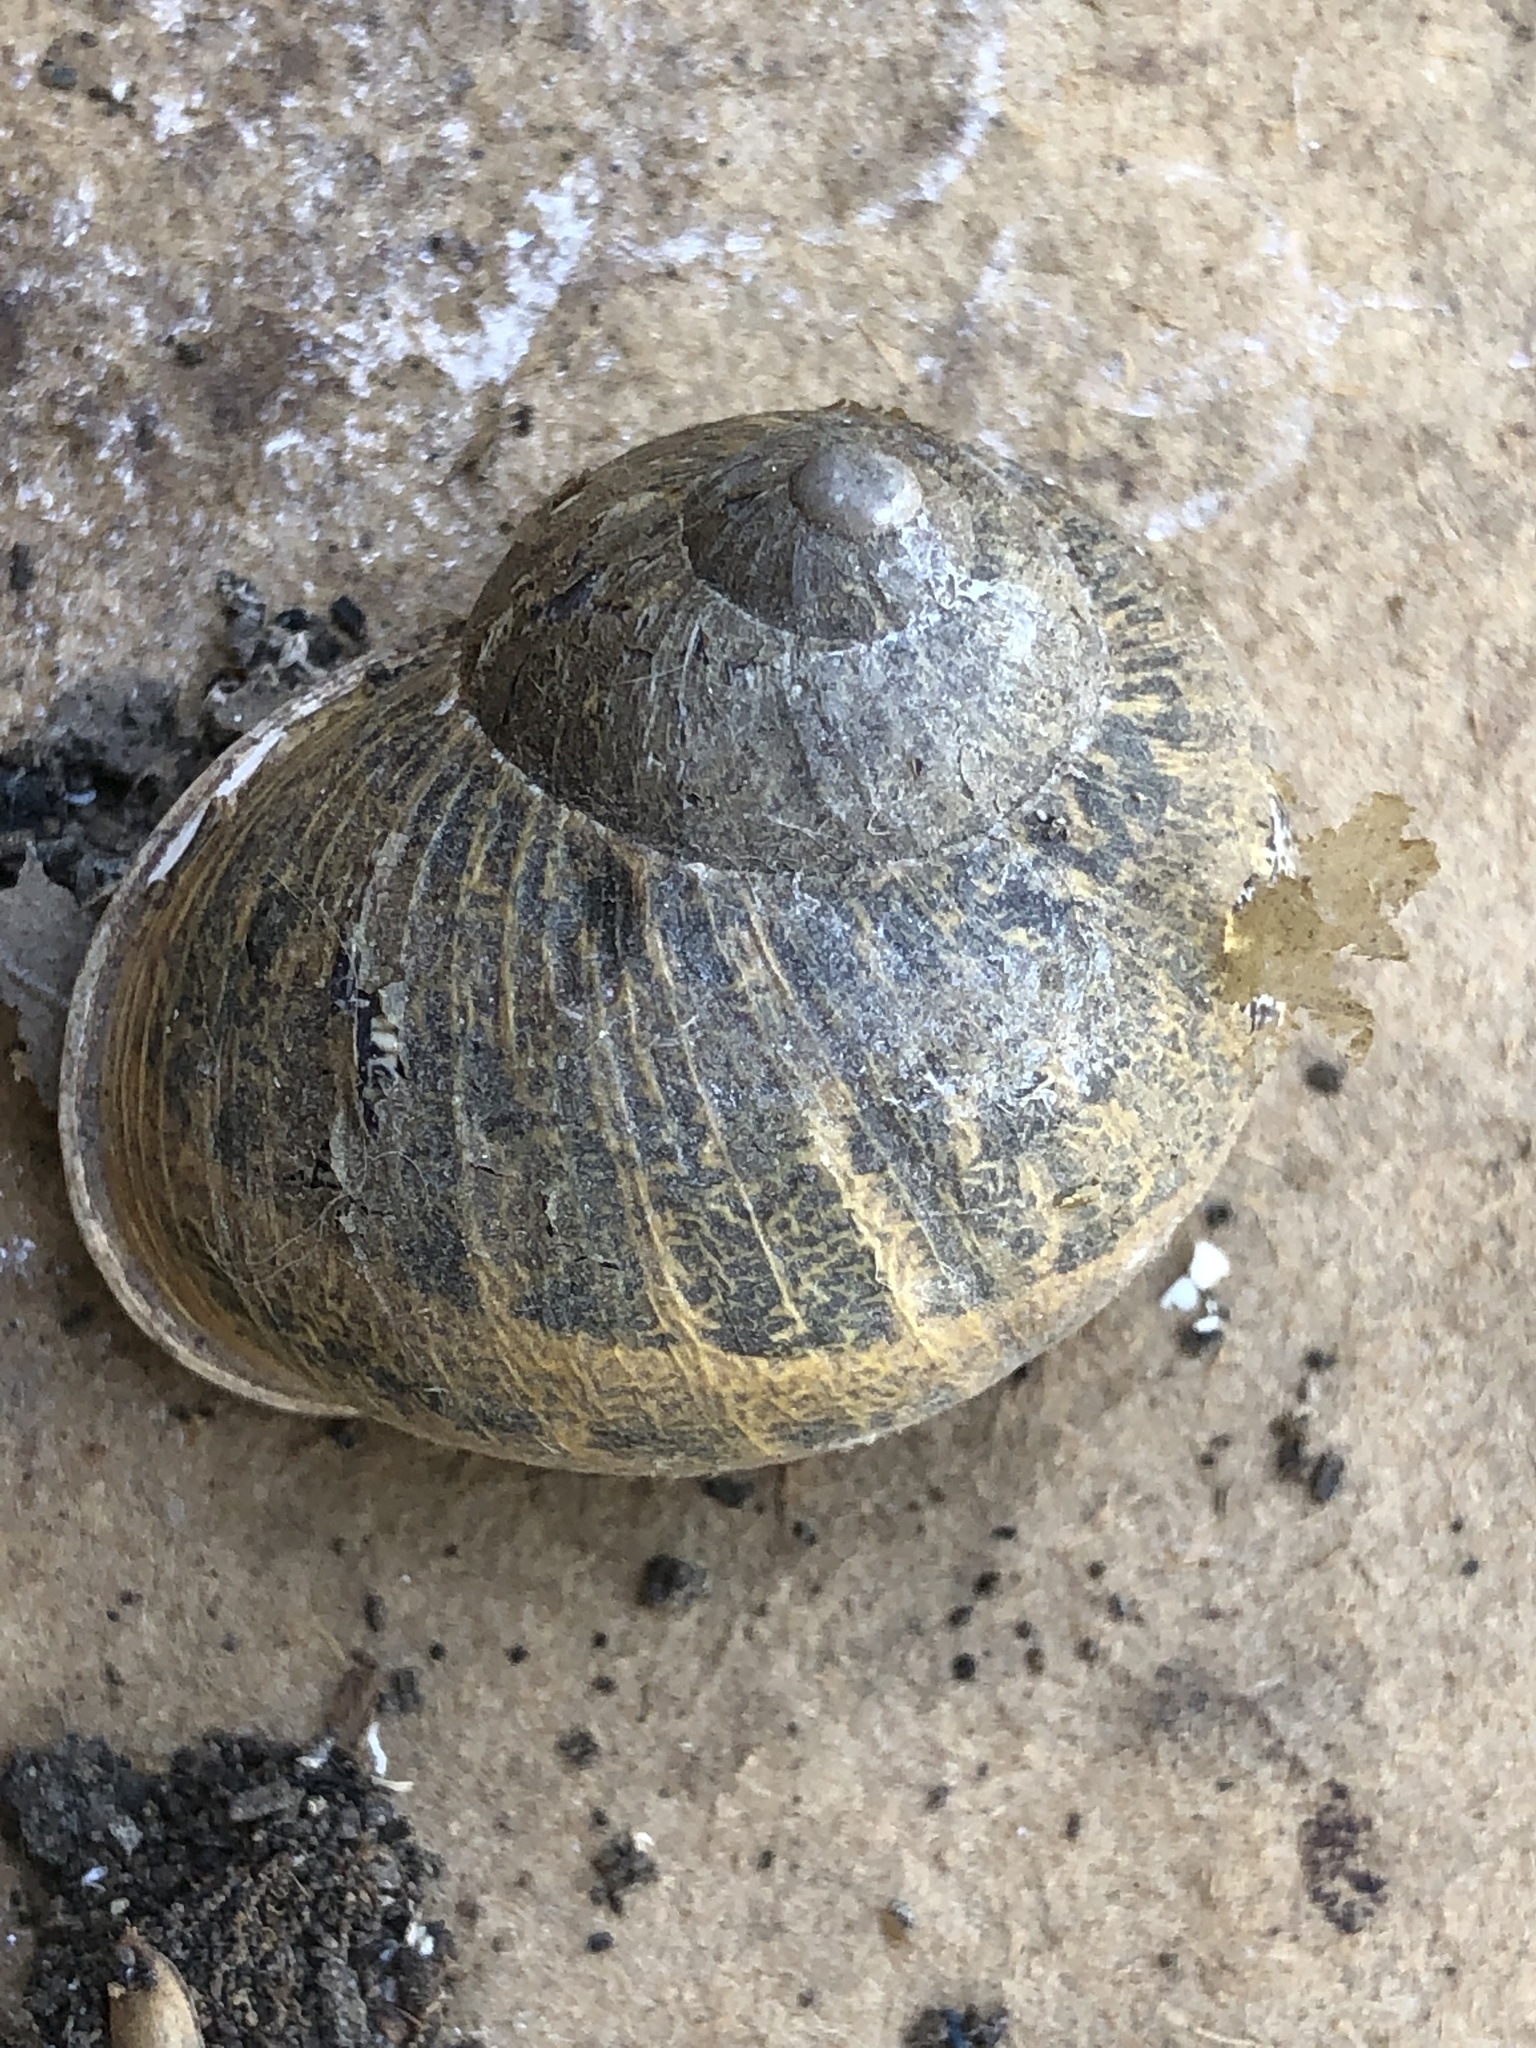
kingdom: Animalia
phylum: Mollusca
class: Gastropoda
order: Stylommatophora
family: Helicidae
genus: Cornu
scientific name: Cornu aspersum
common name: Brown garden snail
